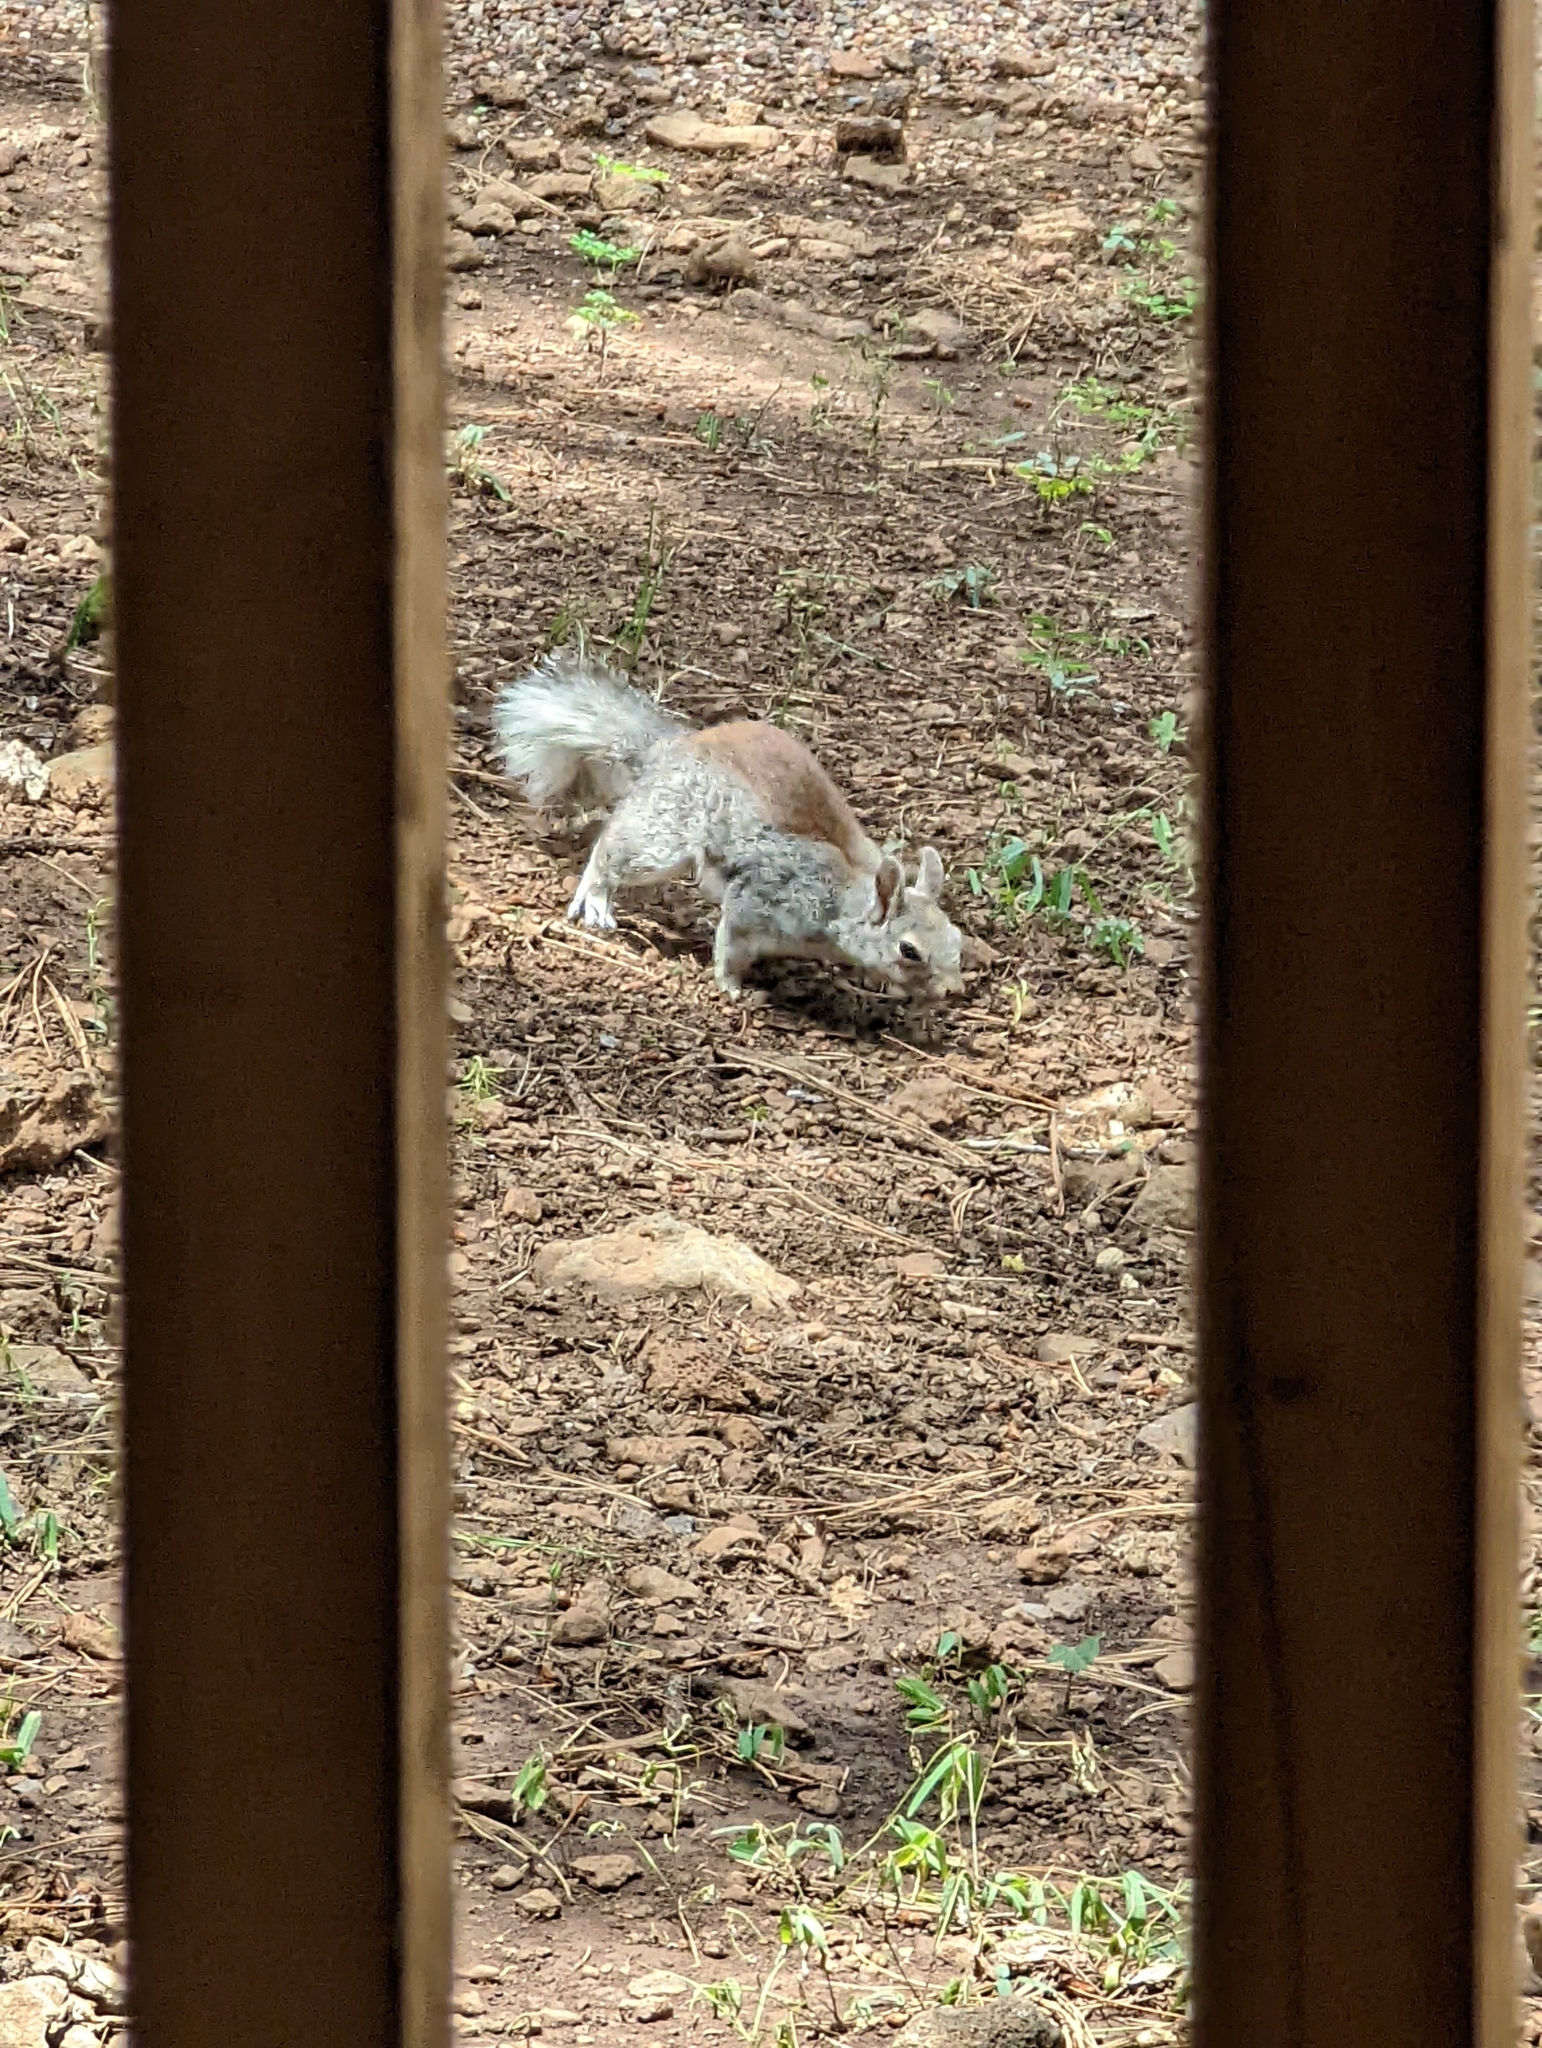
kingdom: Animalia
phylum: Chordata
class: Mammalia
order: Rodentia
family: Sciuridae
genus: Sciurus
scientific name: Sciurus aberti
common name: Abert's squirrel
